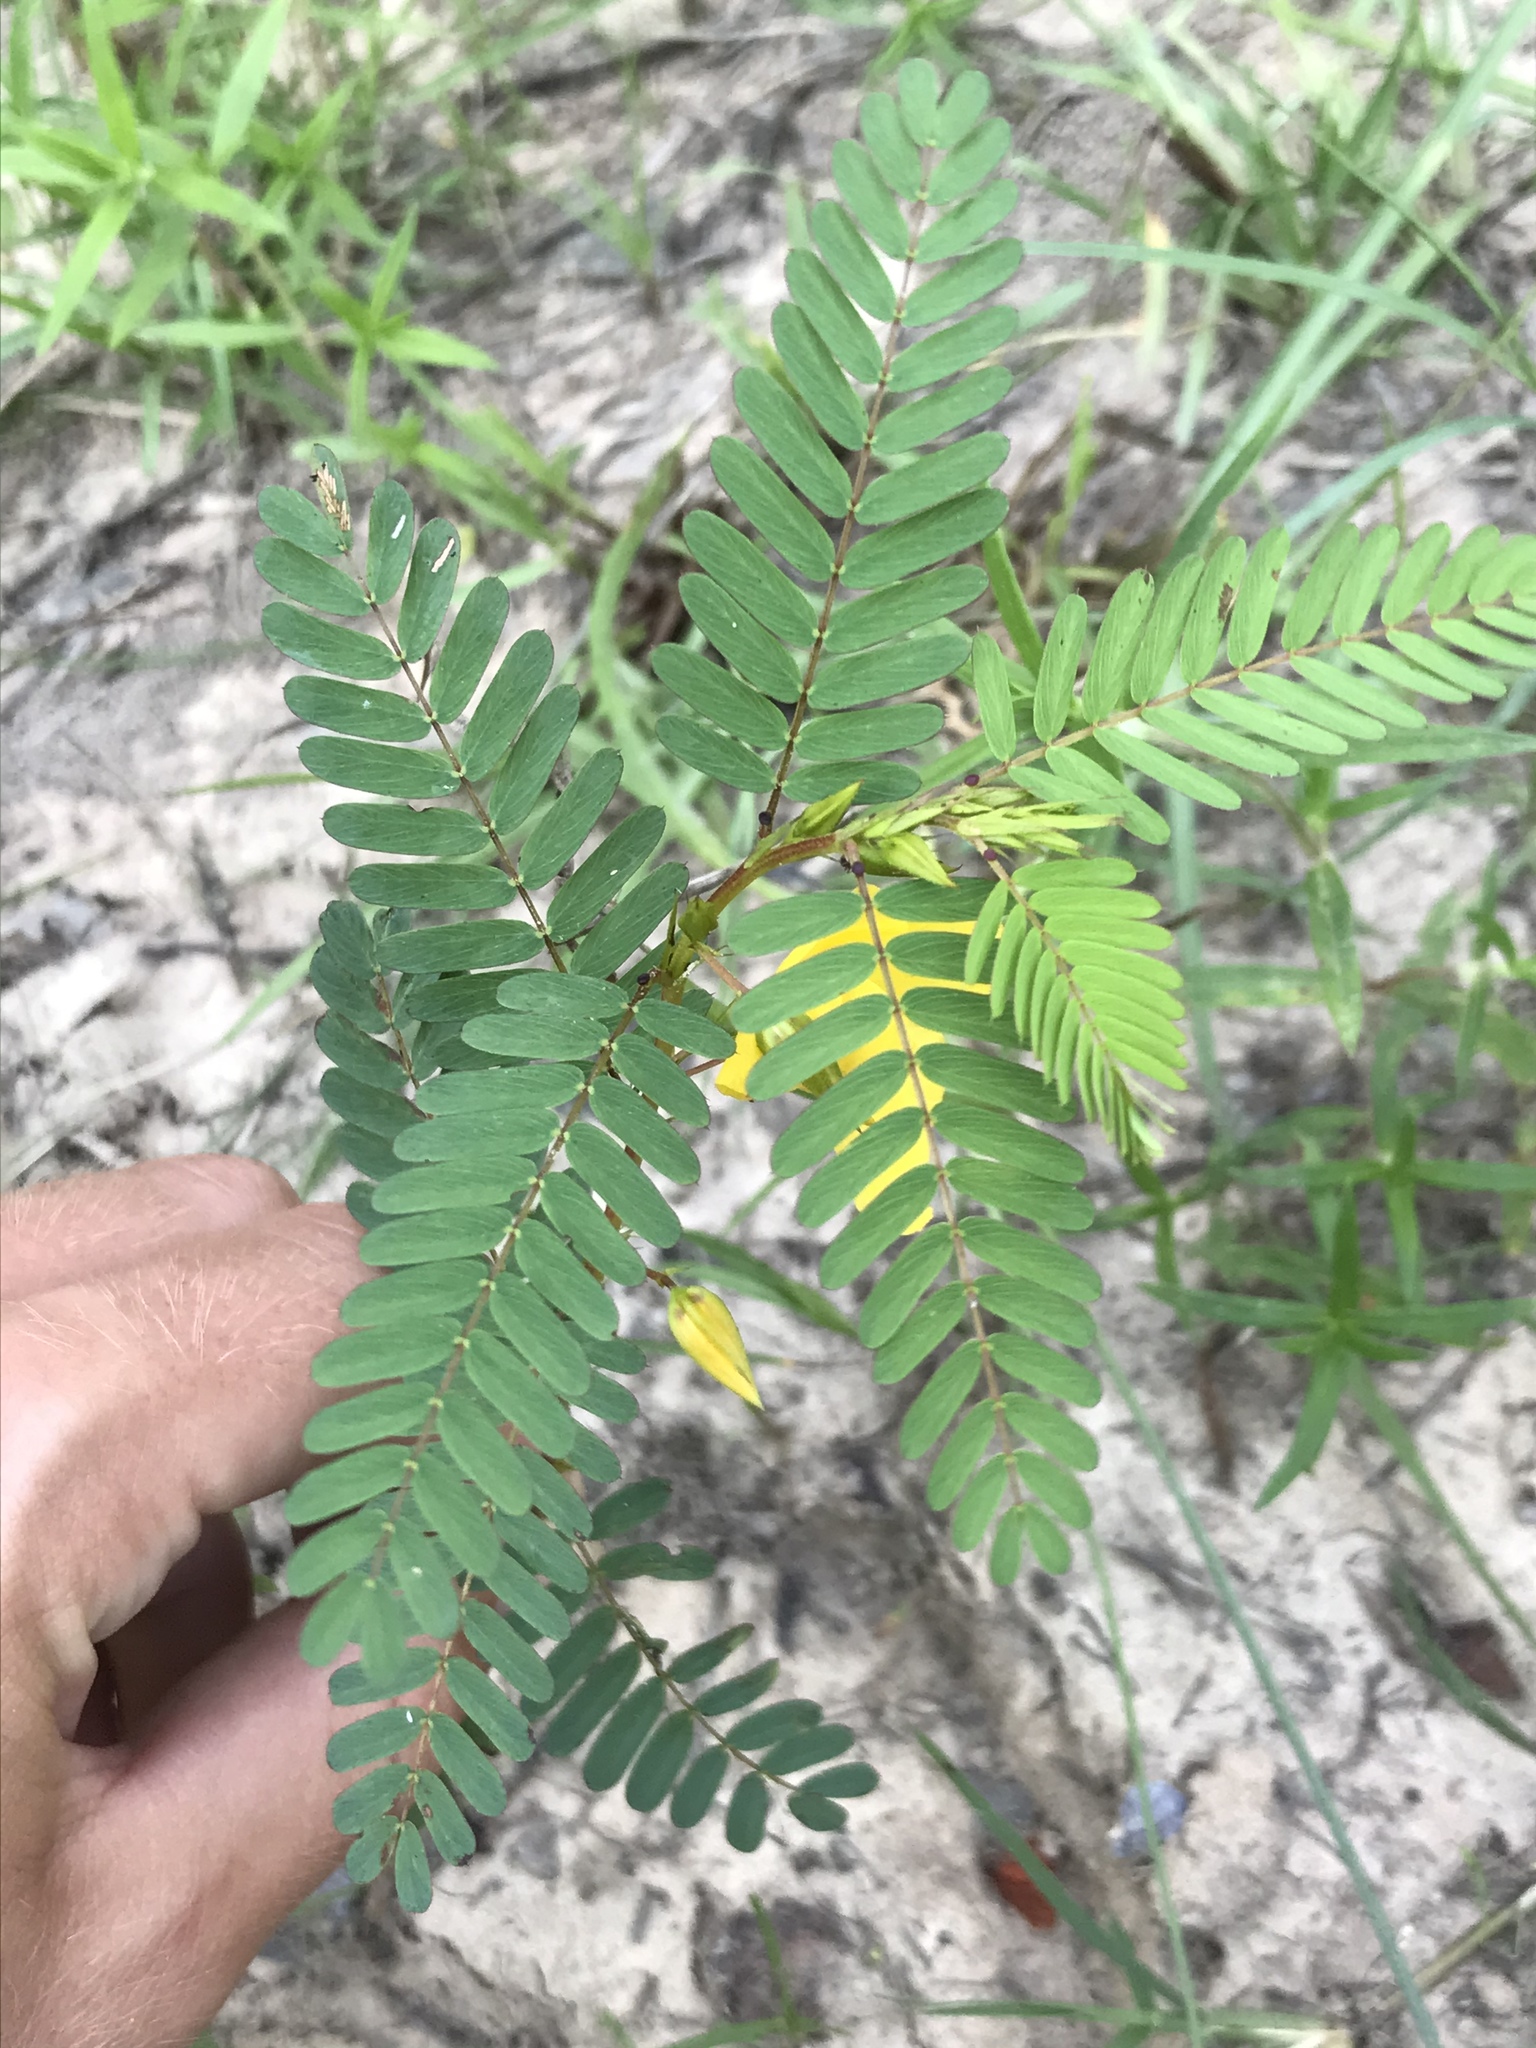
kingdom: Plantae
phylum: Tracheophyta
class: Magnoliopsida
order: Fabales
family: Fabaceae
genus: Chamaecrista
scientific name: Chamaecrista fasciculata
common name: Golden cassia
